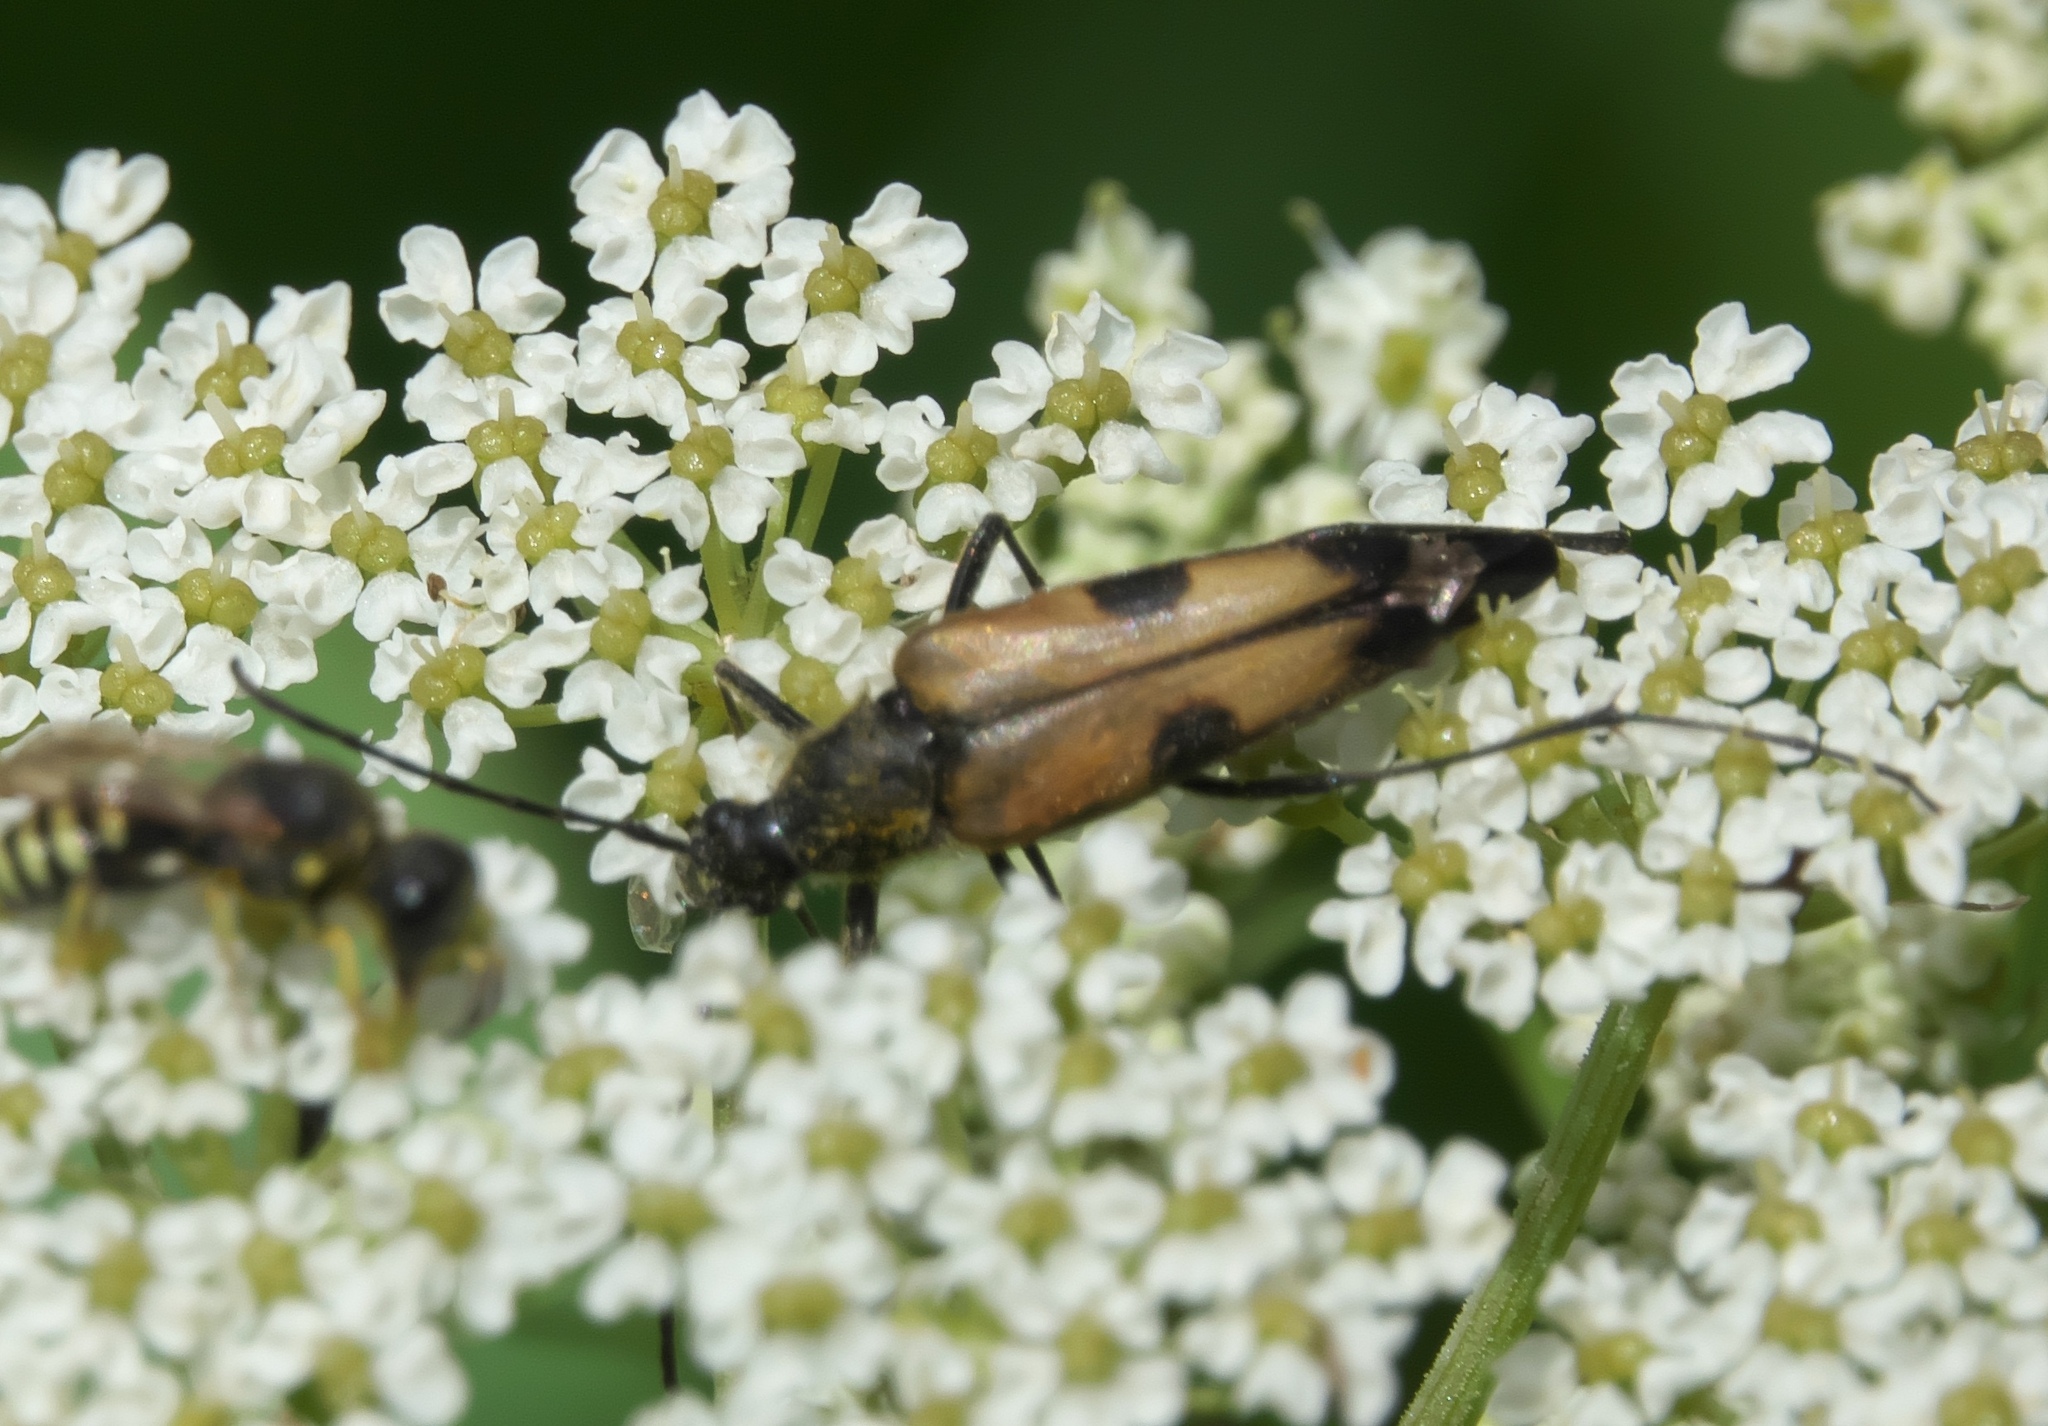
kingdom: Animalia
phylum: Arthropoda
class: Insecta
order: Coleoptera
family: Cerambycidae
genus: Etorofus
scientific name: Etorofus
